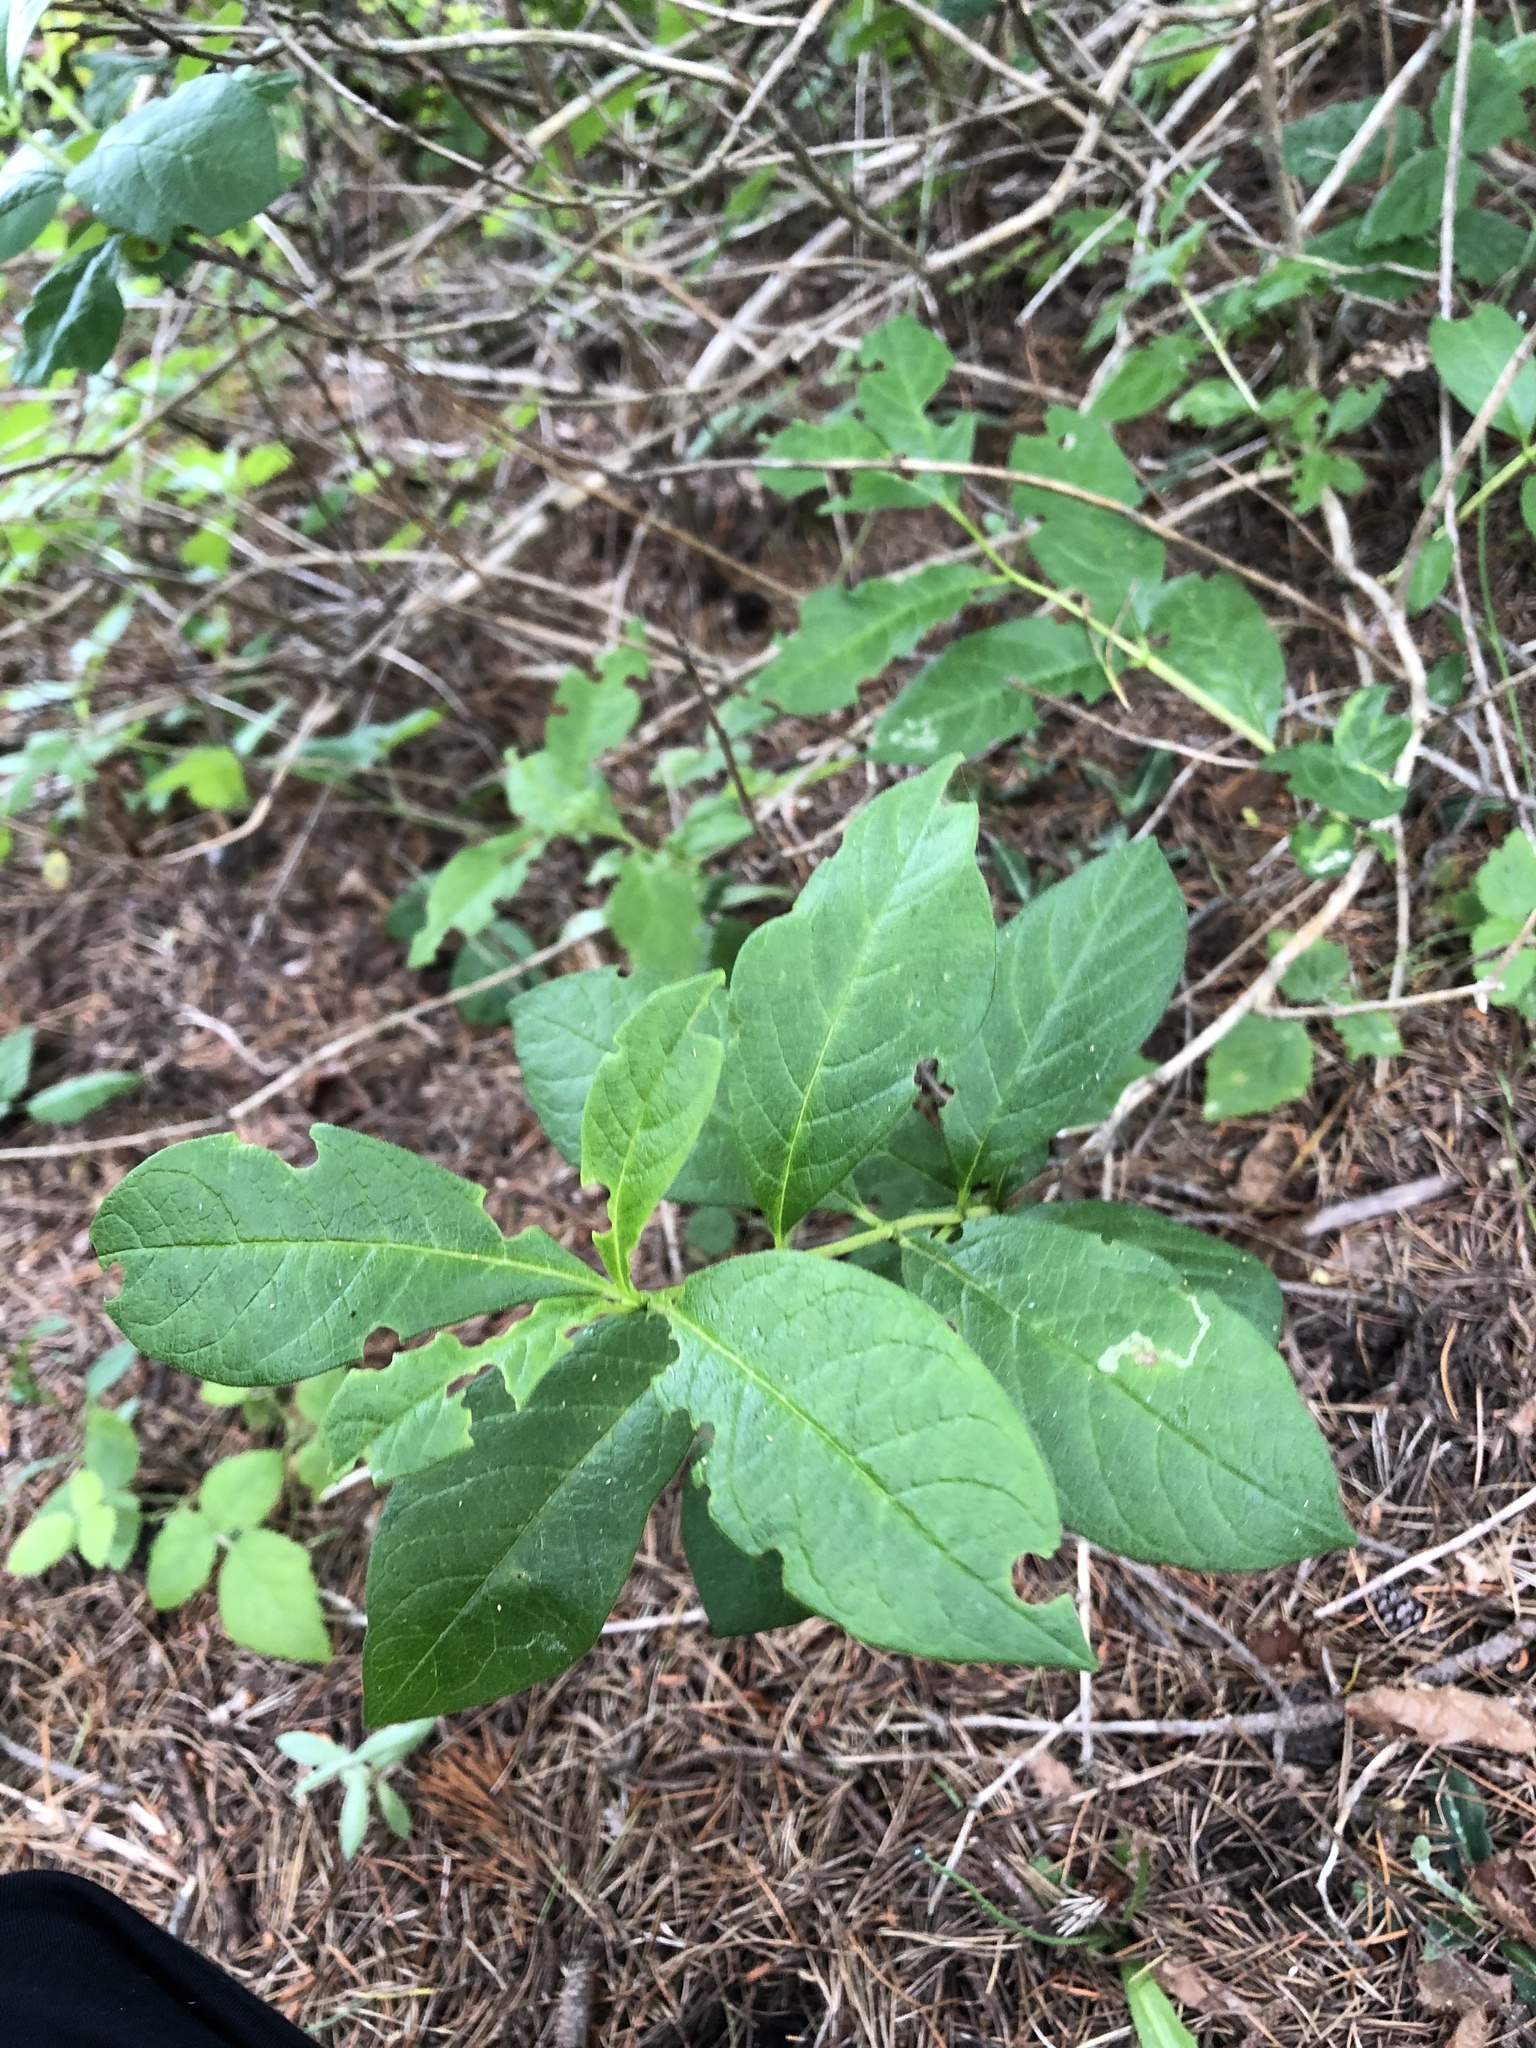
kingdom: Plantae
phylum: Tracheophyta
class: Magnoliopsida
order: Dipsacales
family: Caprifoliaceae
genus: Lonicera
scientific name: Lonicera involucrata
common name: Californian honeysuckle
